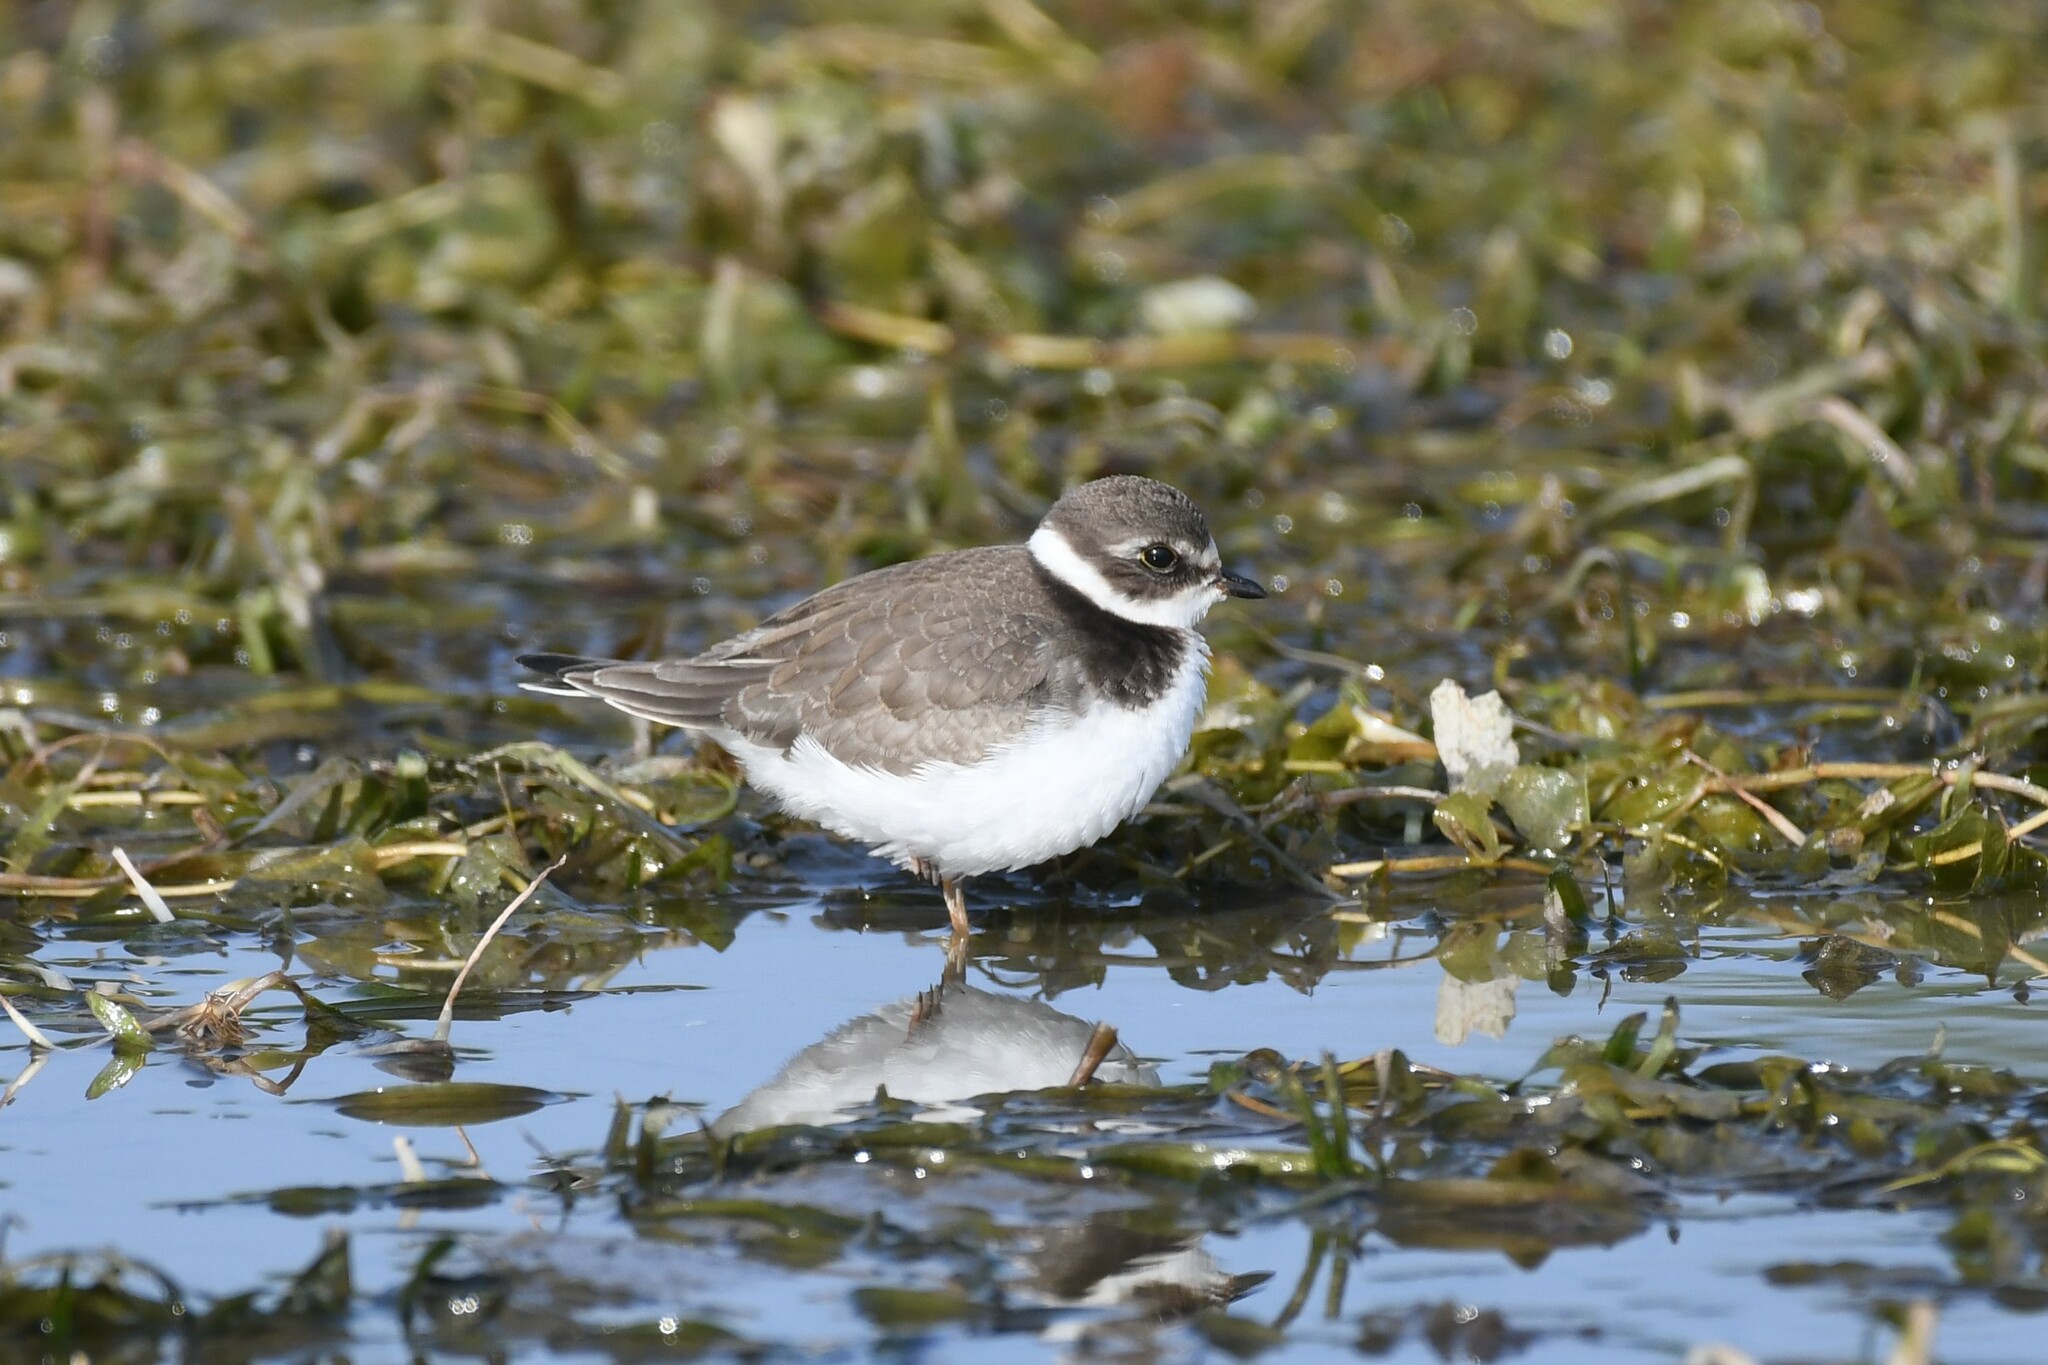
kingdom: Animalia
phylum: Chordata
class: Aves
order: Charadriiformes
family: Charadriidae
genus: Charadrius
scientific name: Charadrius semipalmatus
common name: Semipalmated plover
